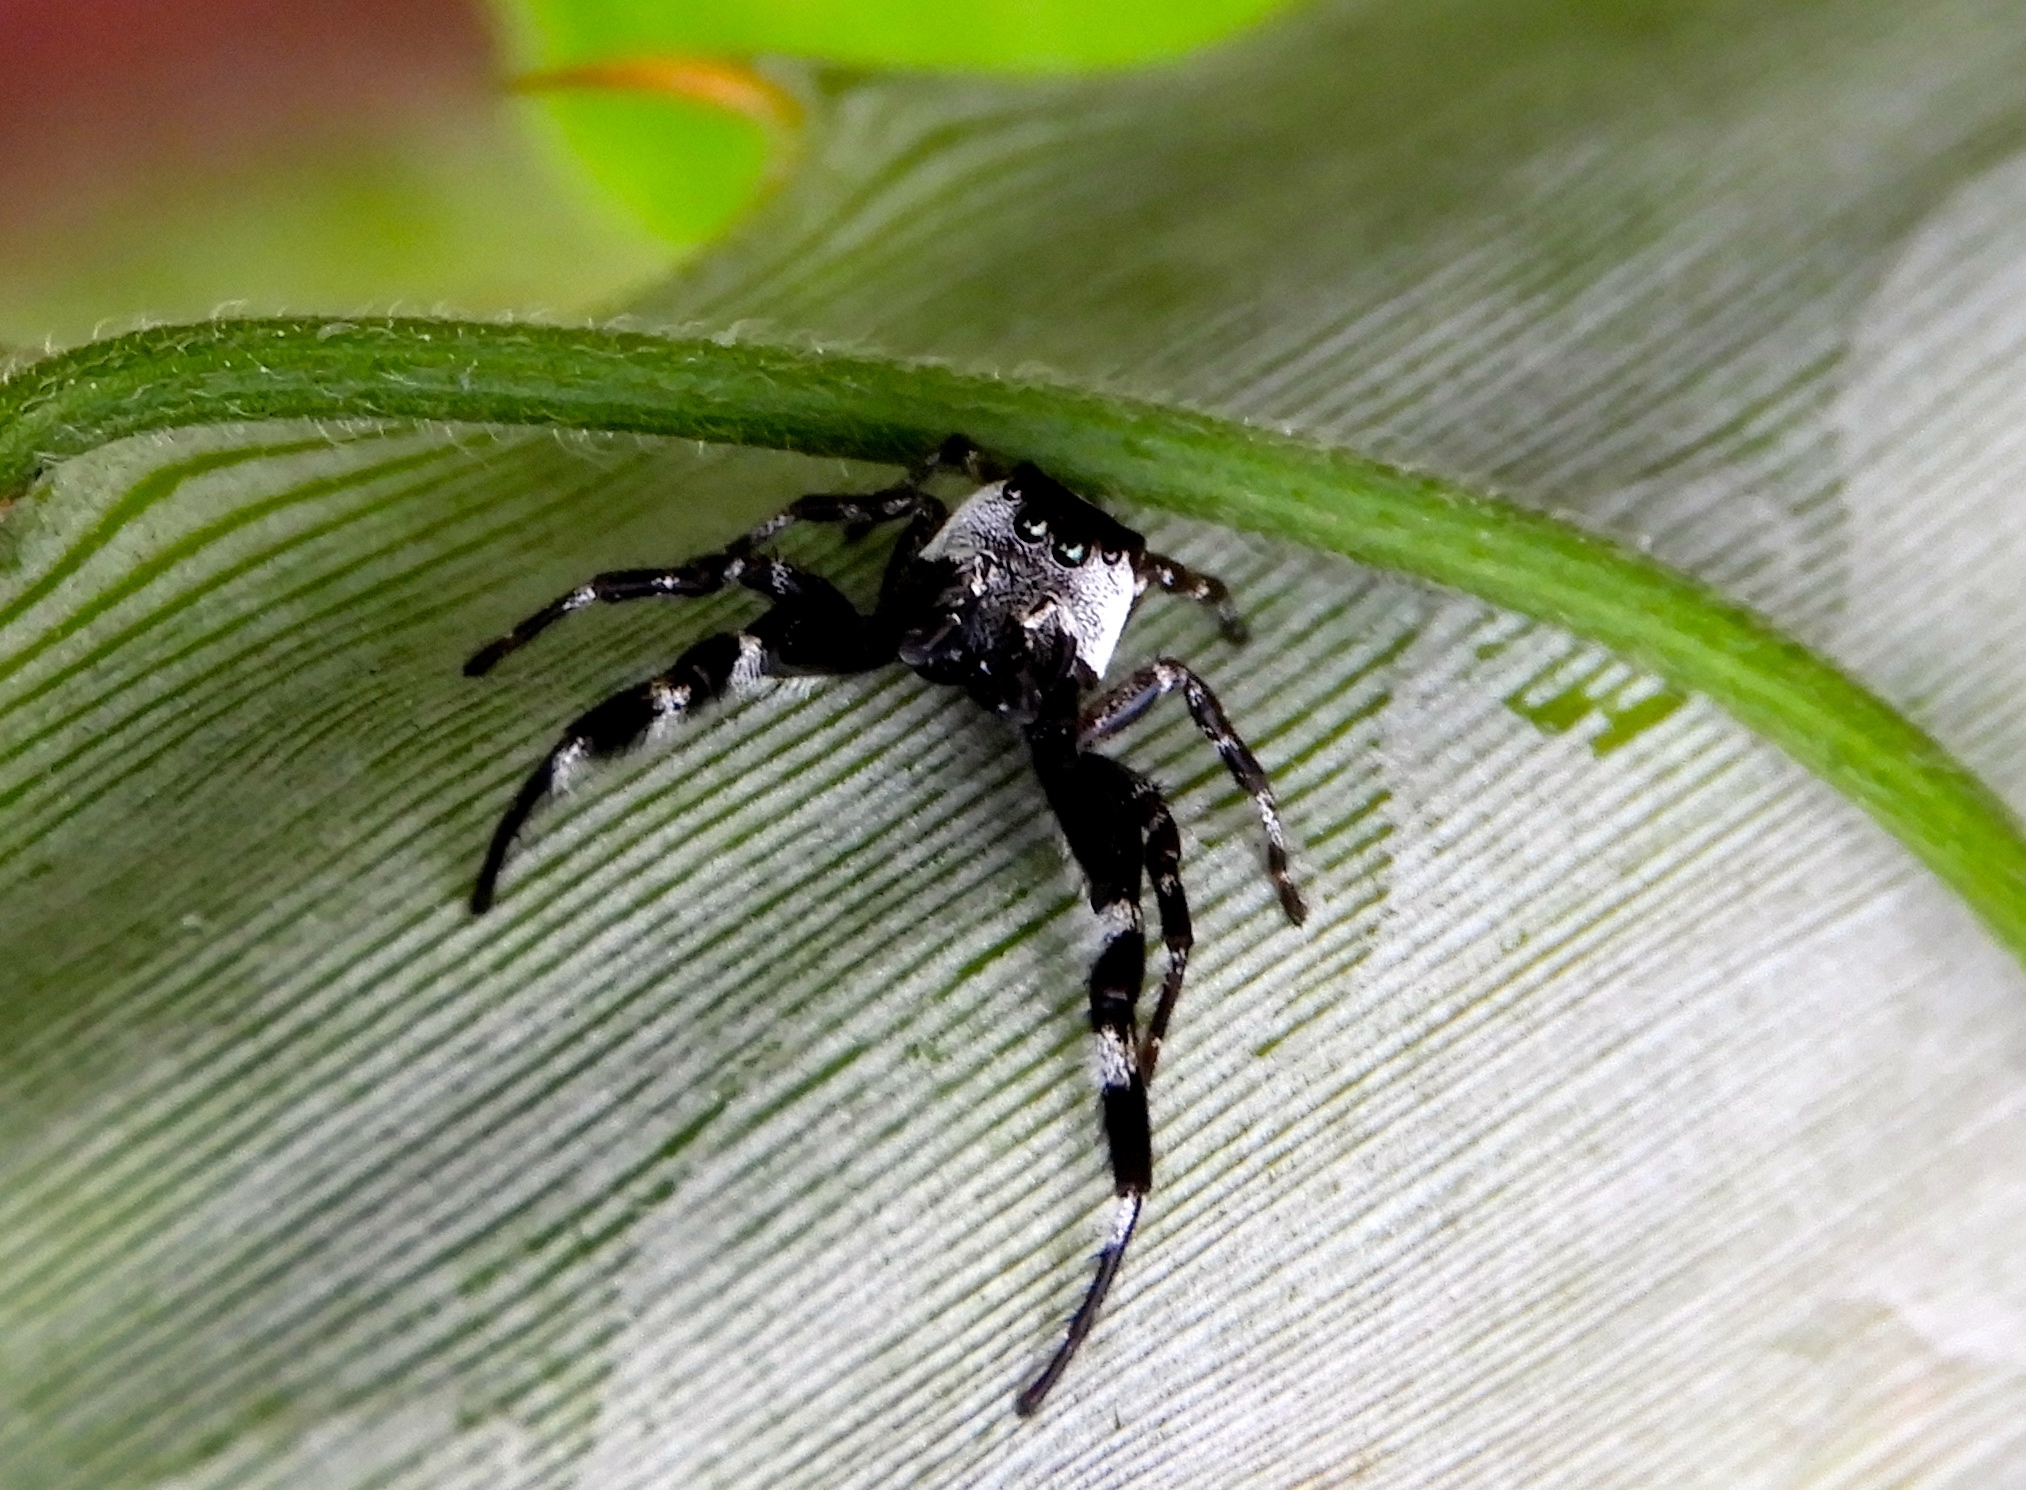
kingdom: Animalia
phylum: Arthropoda
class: Arachnida
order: Araneae
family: Salticidae
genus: Dendryphantes
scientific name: Dendryphantes zygoballoides
